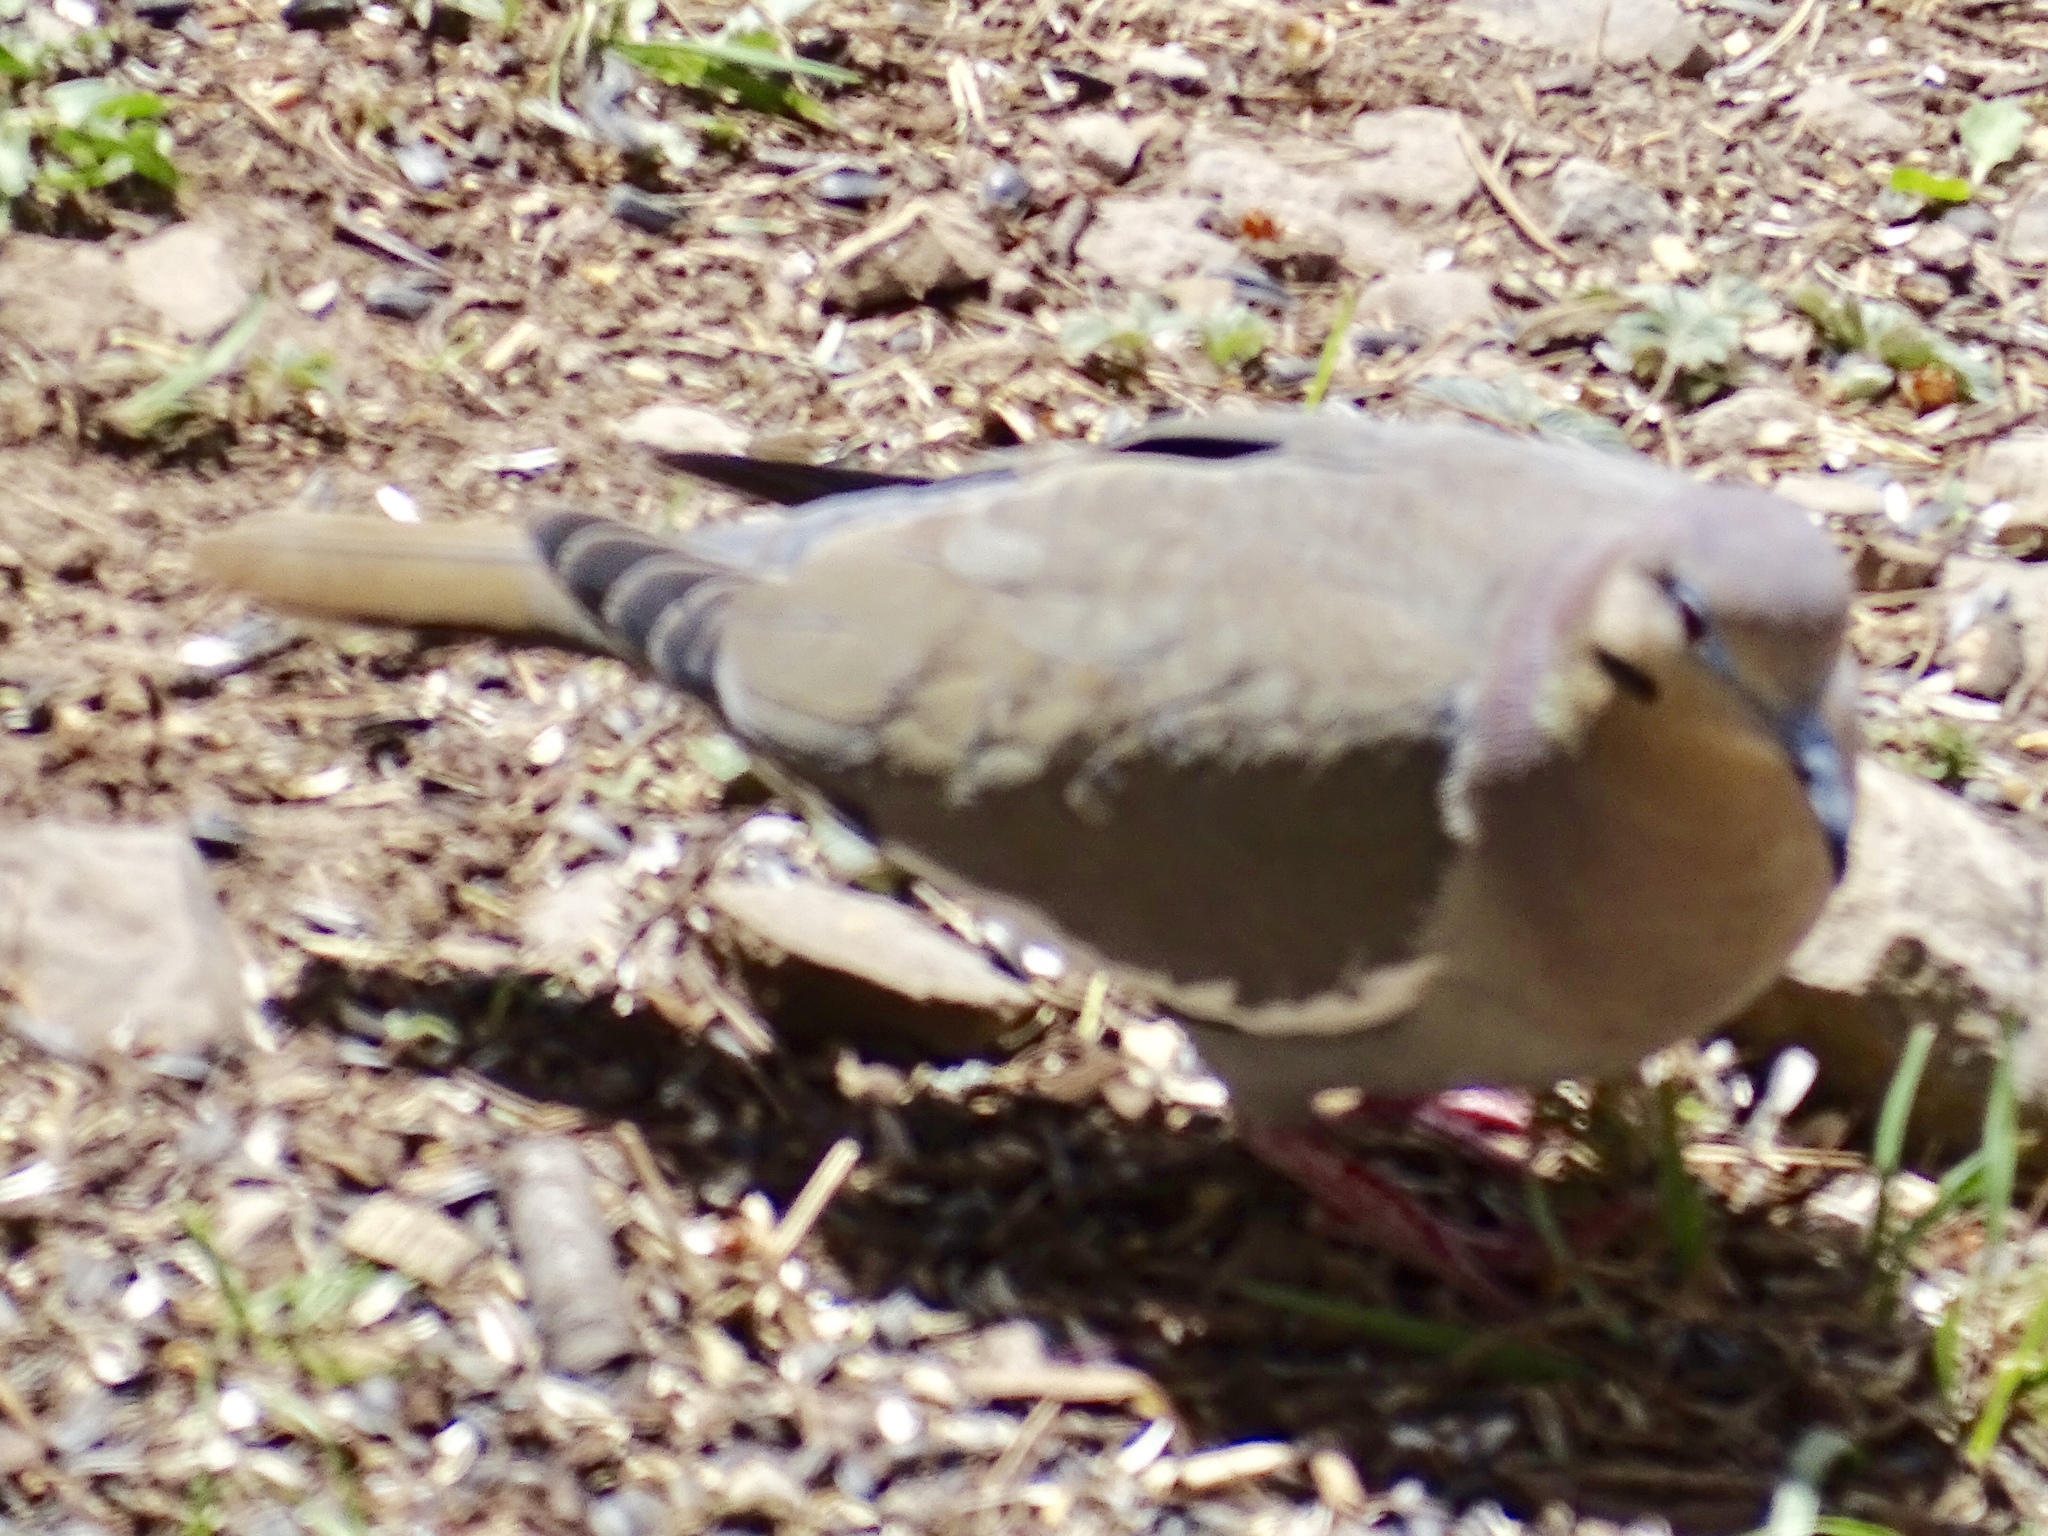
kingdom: Animalia
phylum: Chordata
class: Aves
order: Columbiformes
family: Columbidae
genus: Zenaida
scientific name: Zenaida asiatica
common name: White-winged dove
